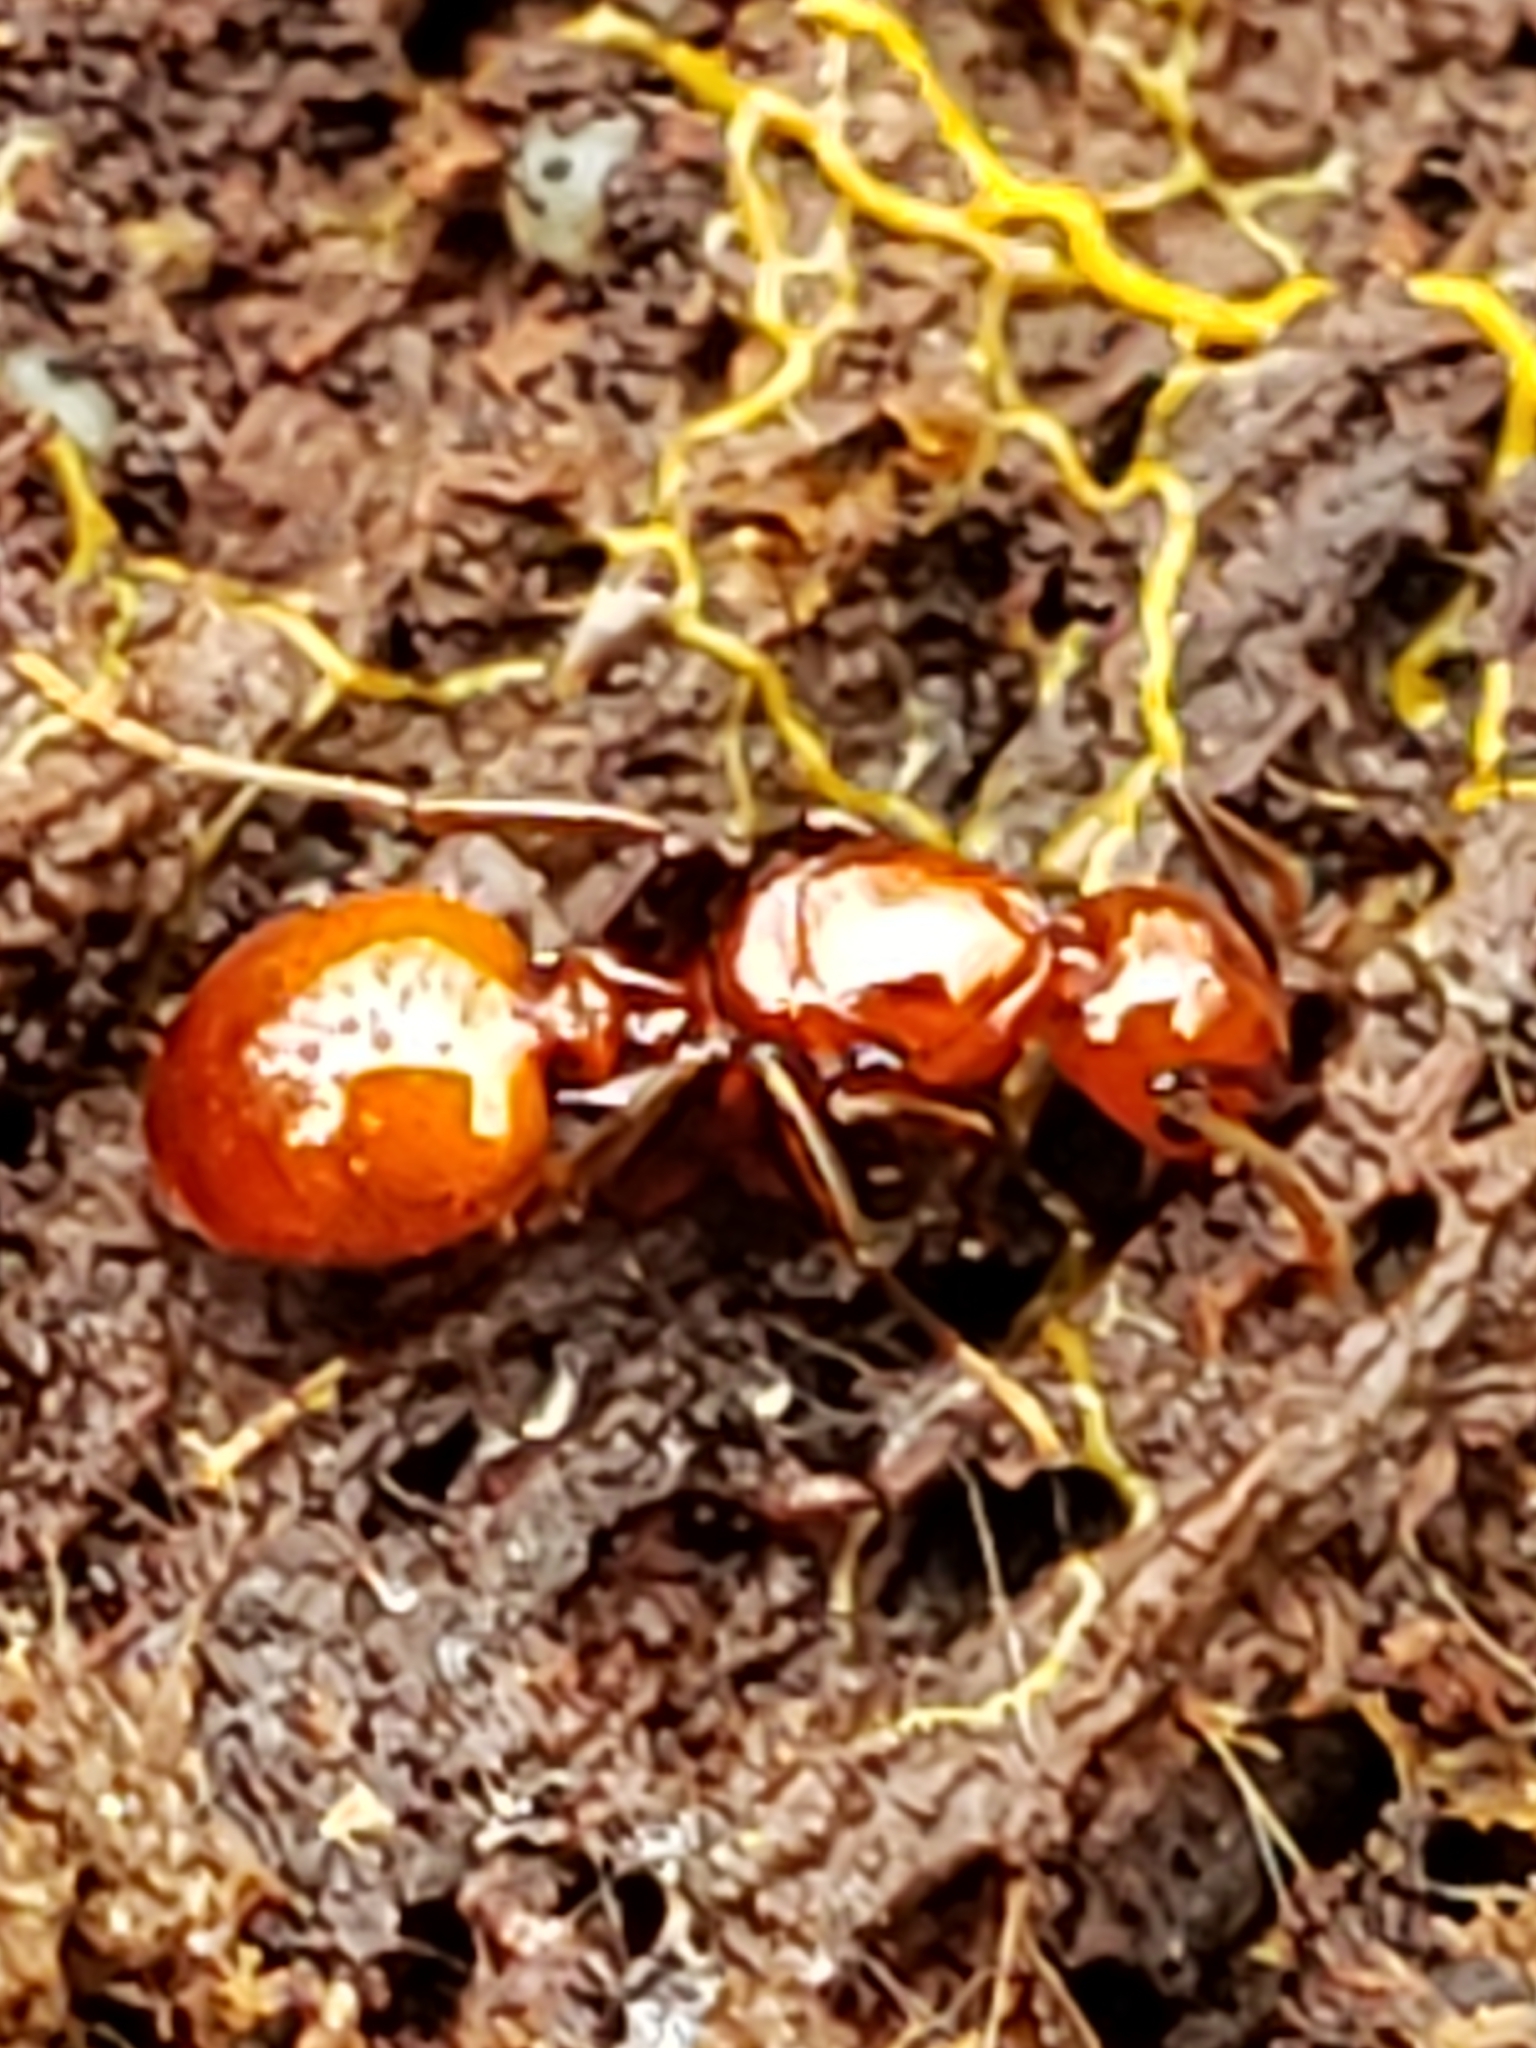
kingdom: Animalia
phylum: Arthropoda
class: Insecta
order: Hymenoptera
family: Formicidae
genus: Aphaenogaster
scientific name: Aphaenogaster tennesseensis
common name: Tennessee thread-waisted ant
